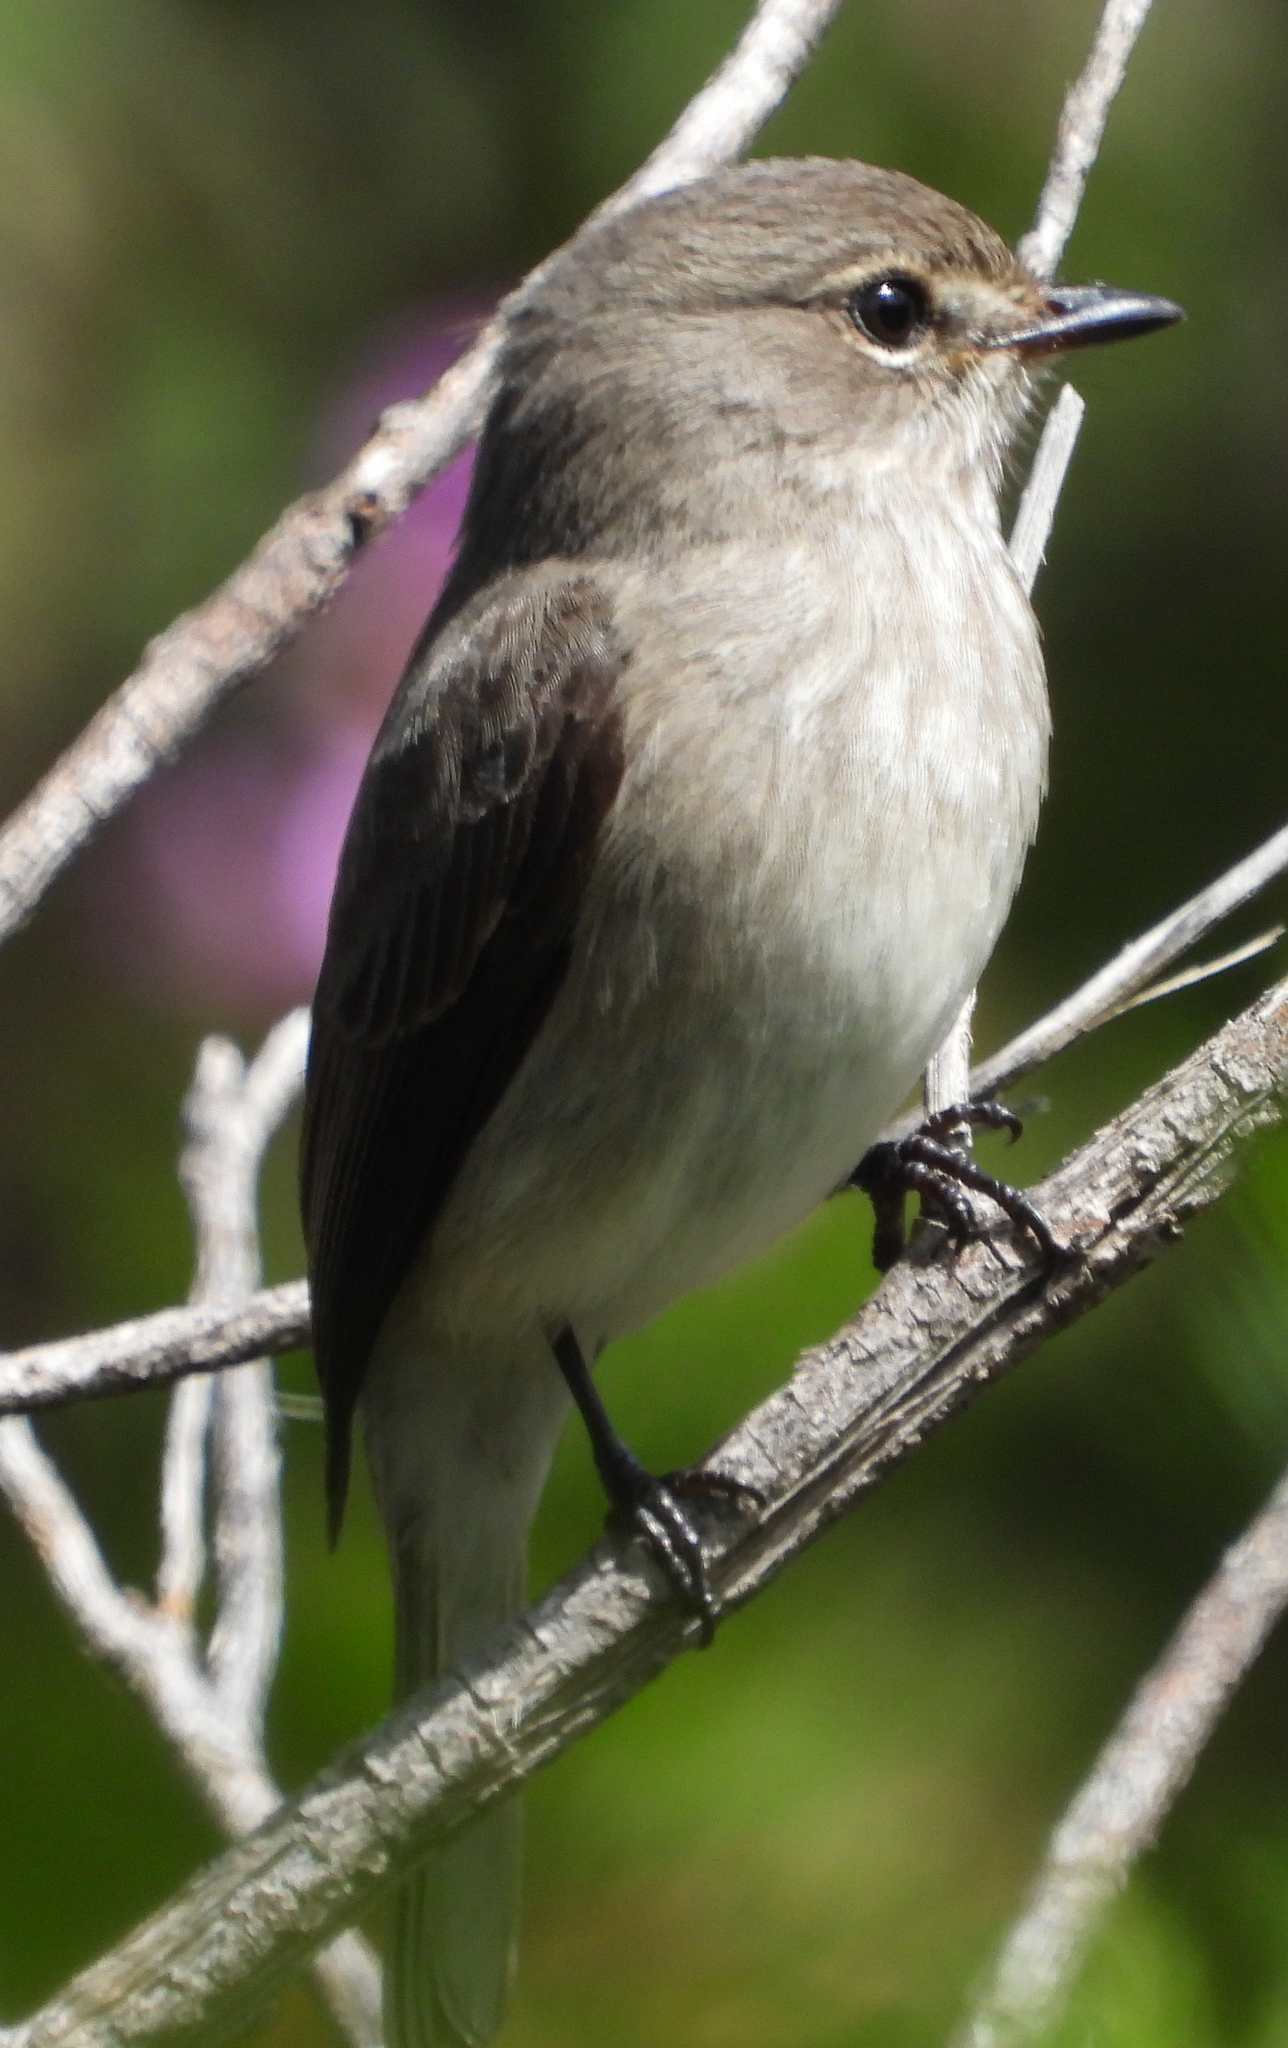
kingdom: Animalia
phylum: Chordata
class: Aves
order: Passeriformes
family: Muscicapidae
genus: Muscicapa
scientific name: Muscicapa adusta
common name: African dusky flycatcher
